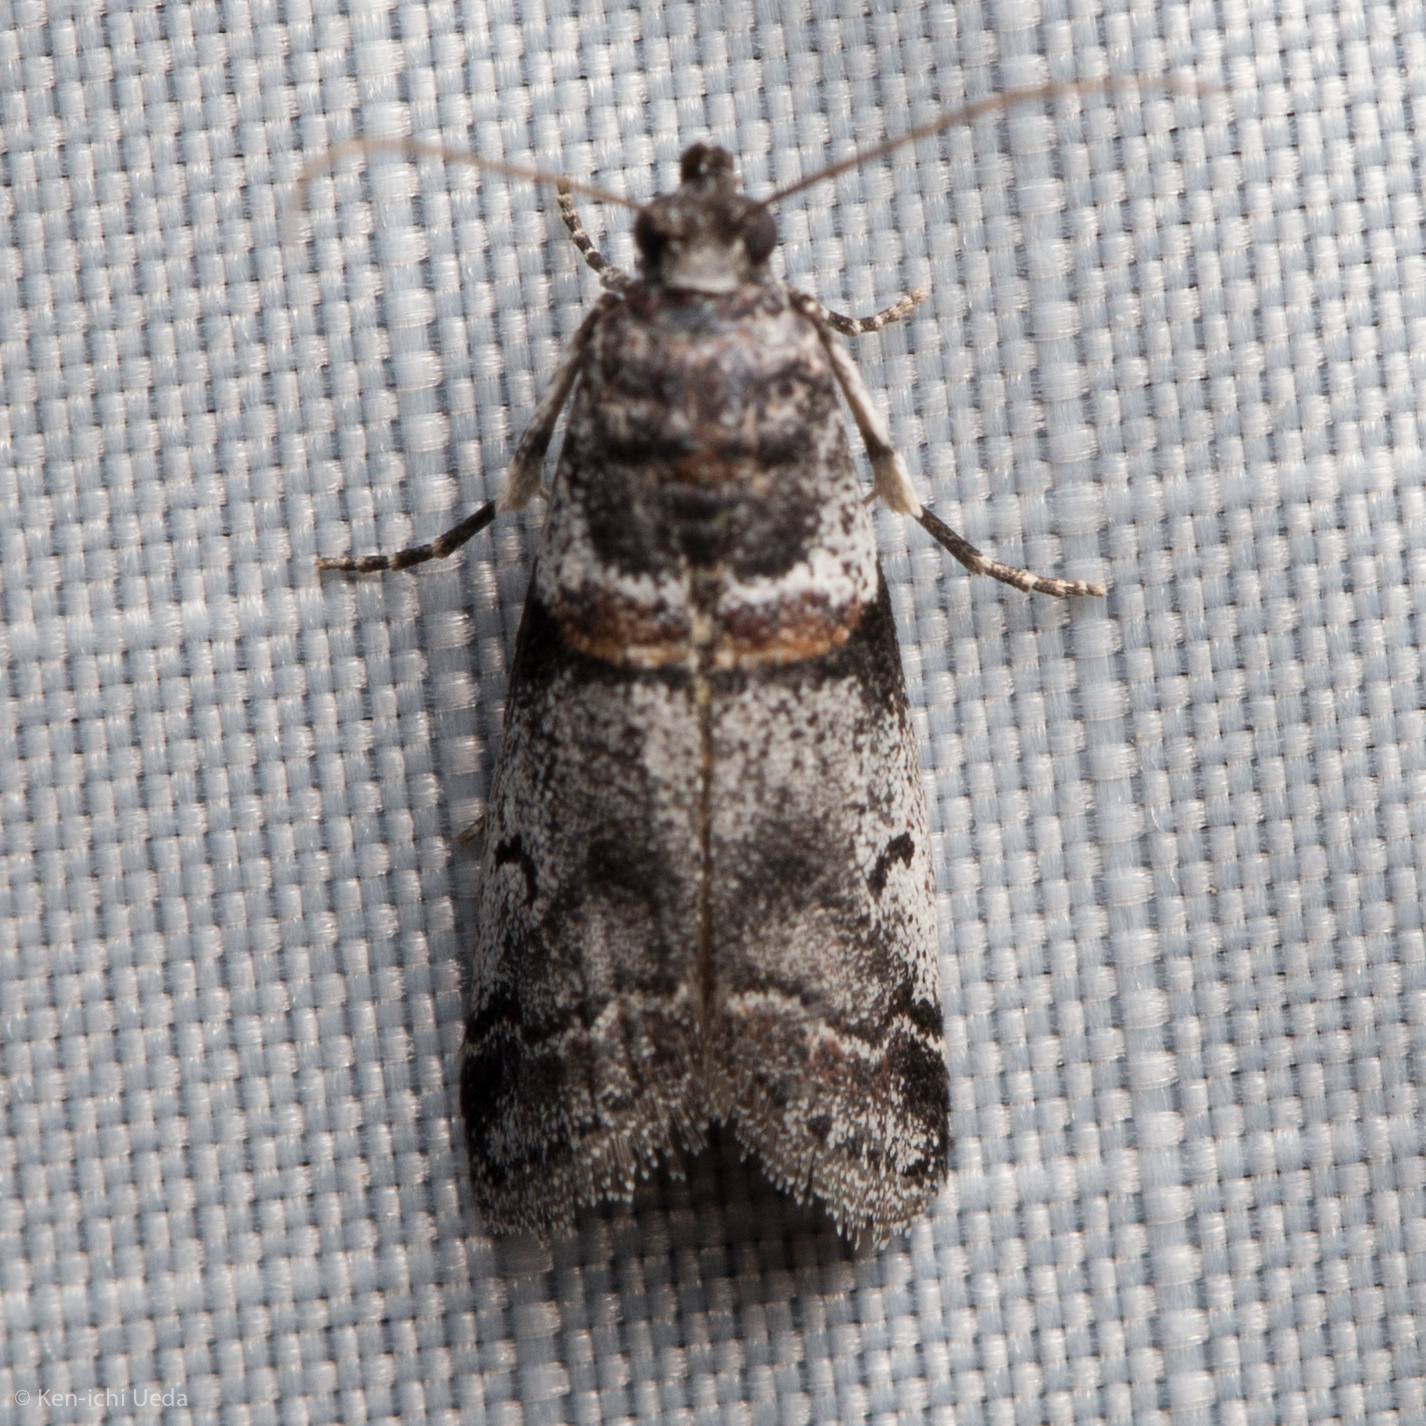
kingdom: Animalia
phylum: Arthropoda
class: Insecta
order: Lepidoptera
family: Pyralidae
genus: Acrobasis
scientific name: Acrobasis tricolorella
